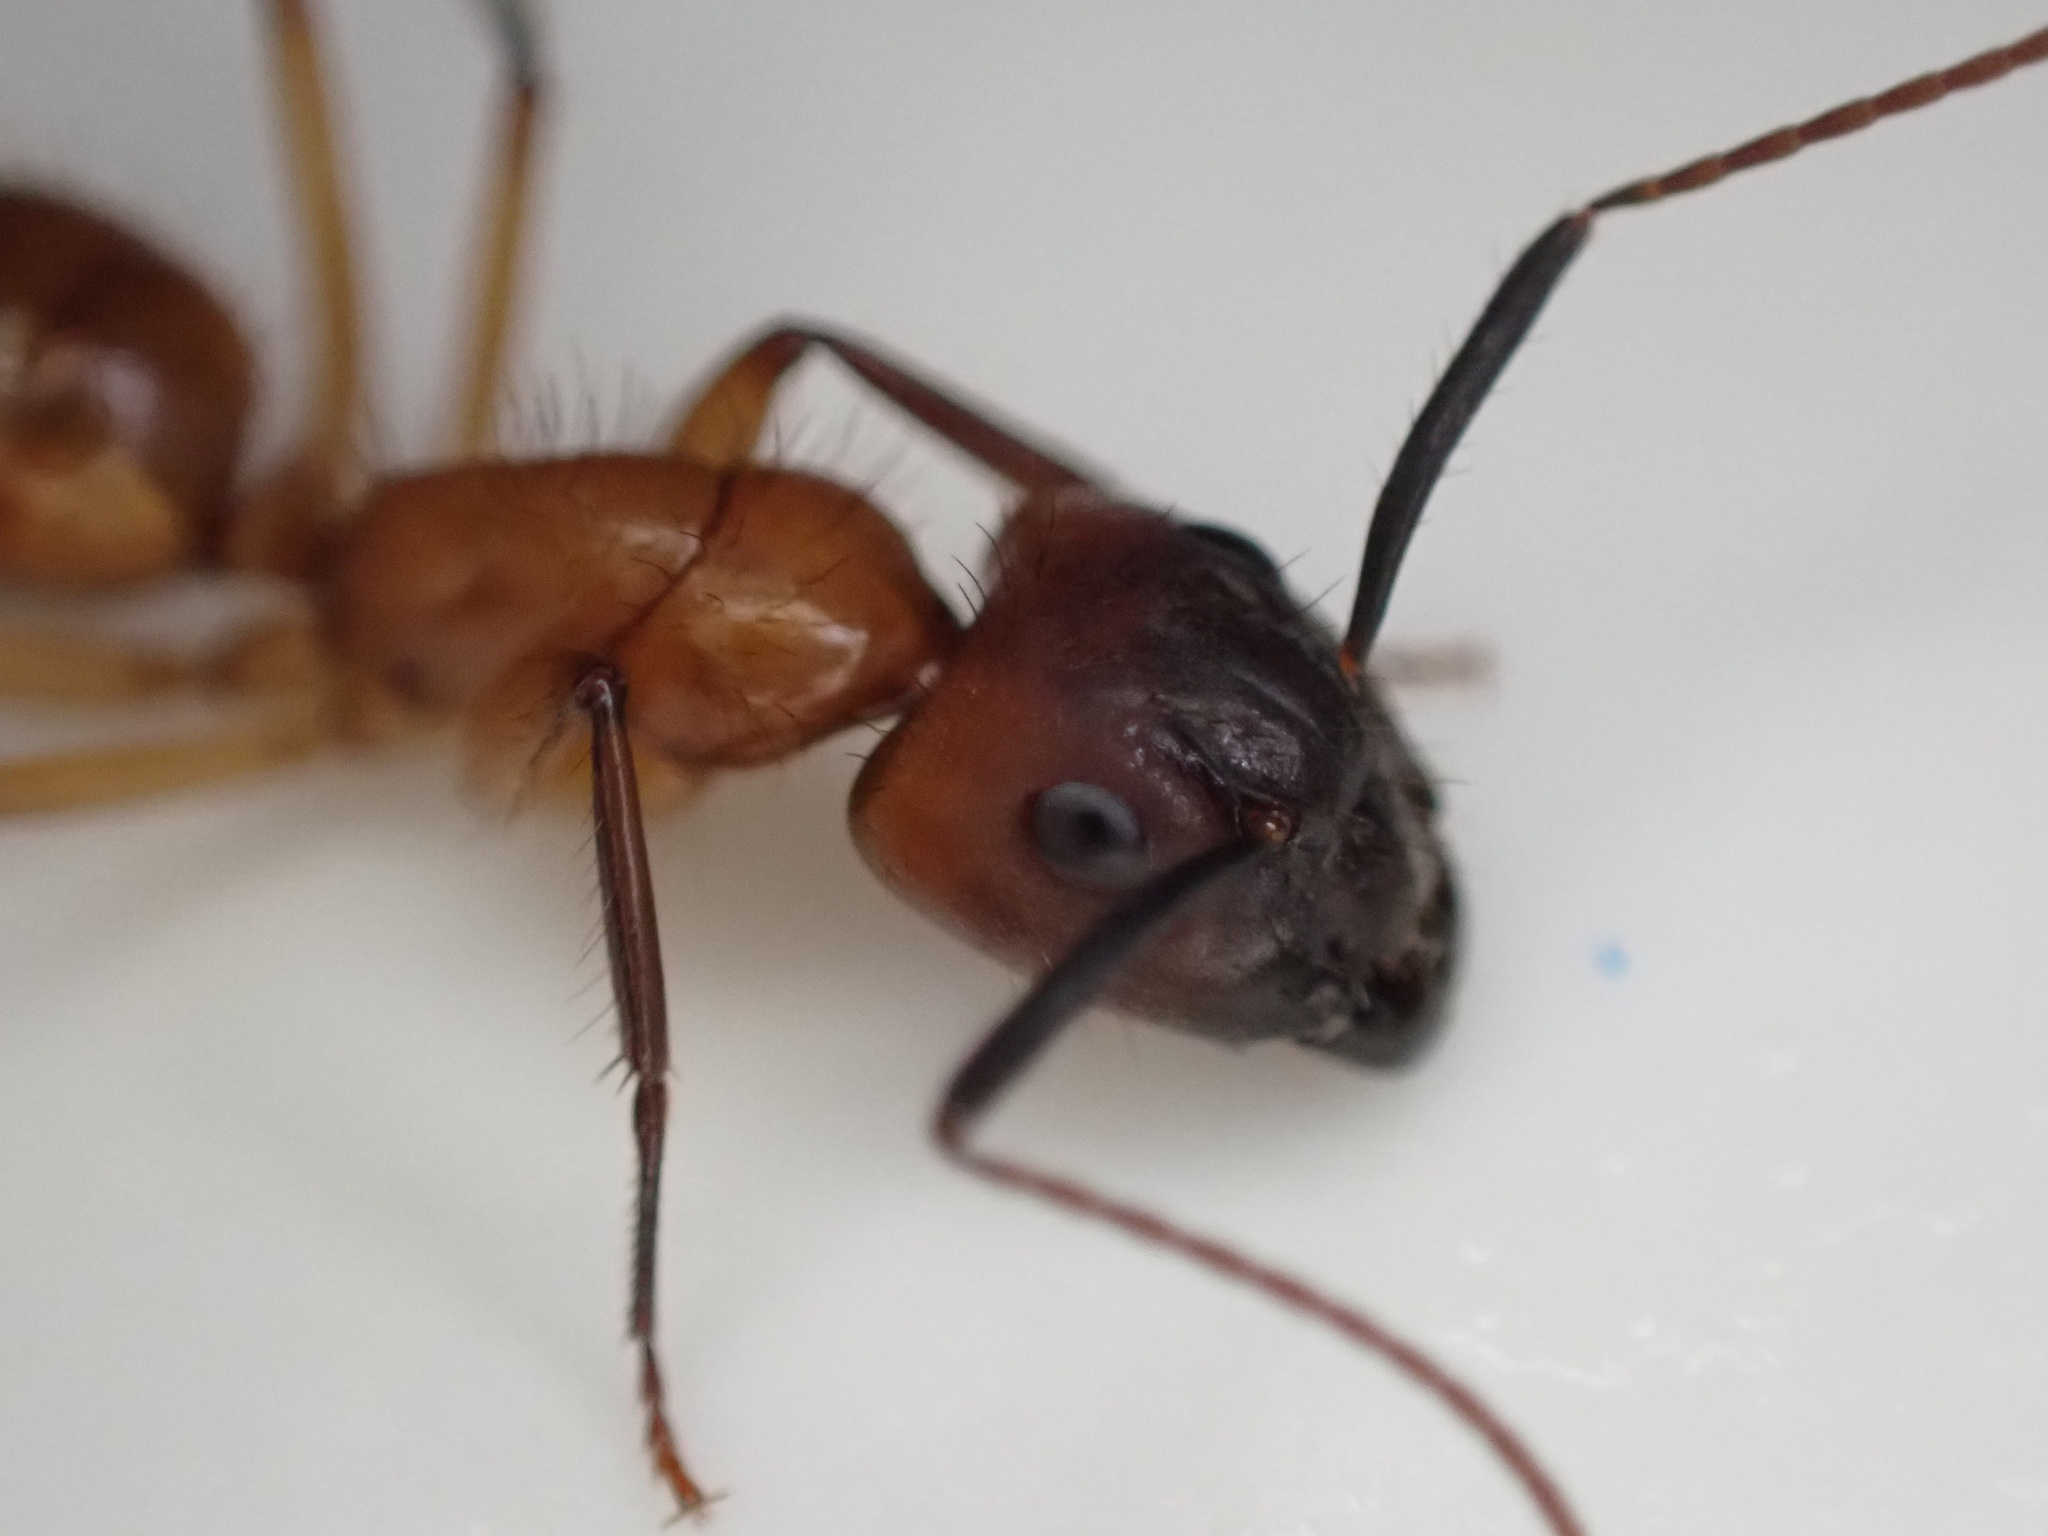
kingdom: Animalia
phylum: Arthropoda
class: Insecta
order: Hymenoptera
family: Formicidae
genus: Camponotus
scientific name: Camponotus atriceps
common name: Florida carpenter ant
